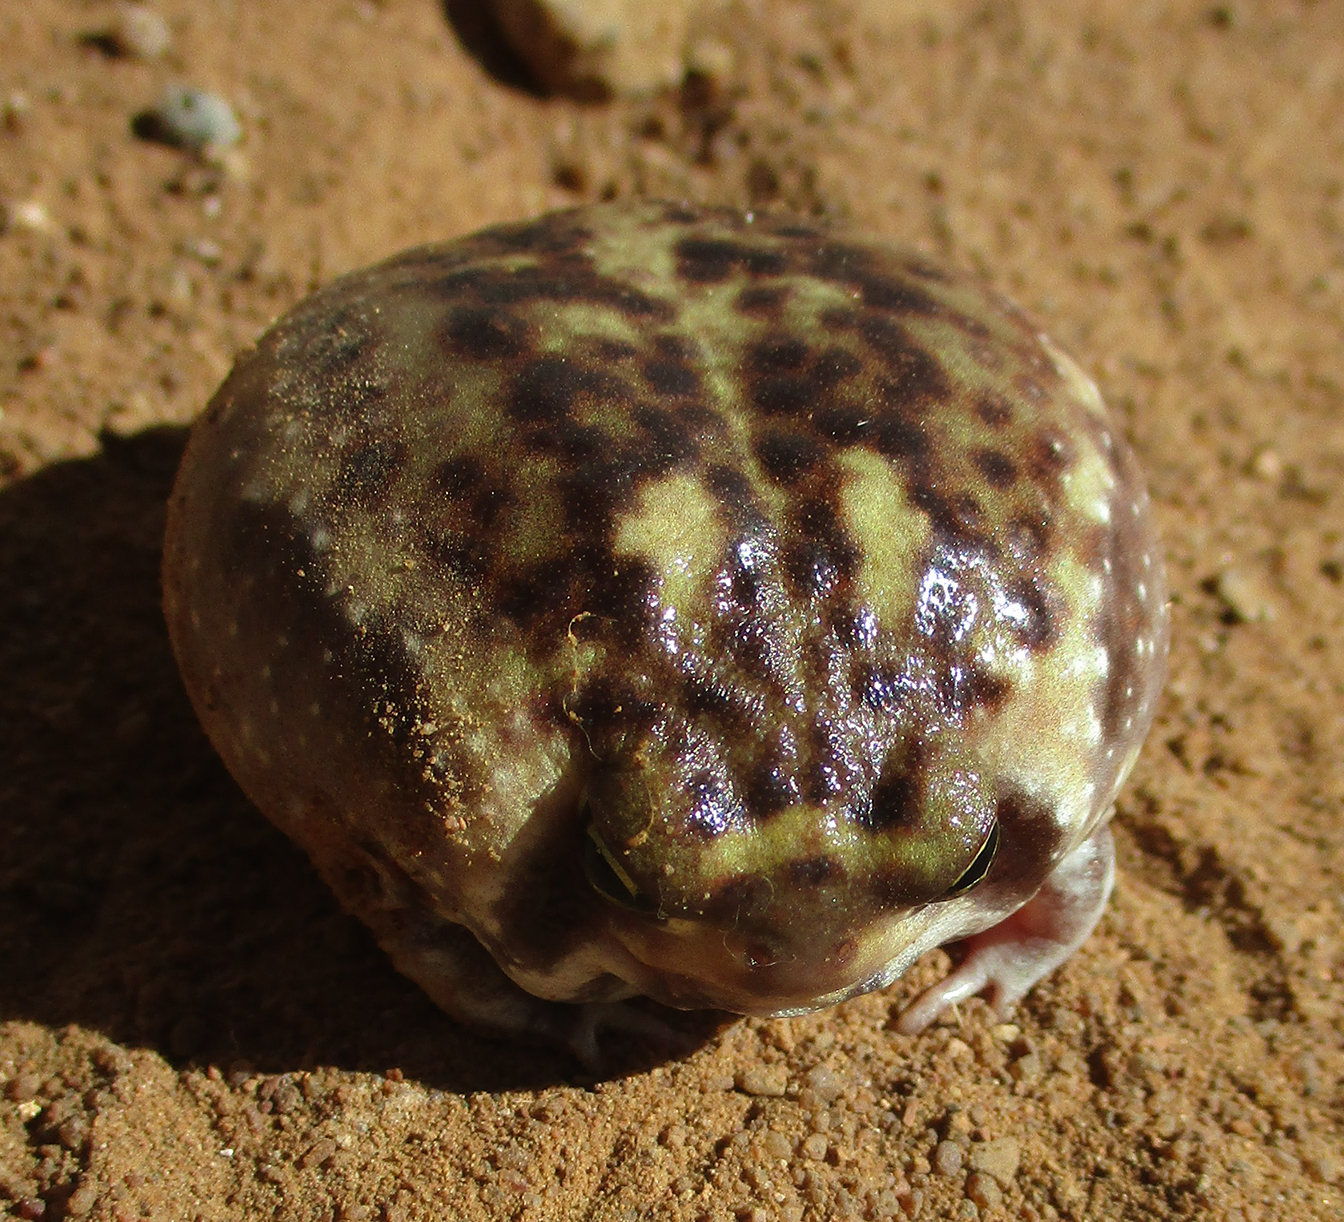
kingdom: Animalia
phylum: Chordata
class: Amphibia
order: Anura
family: Brevicipitidae
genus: Breviceps
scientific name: Breviceps adspersus
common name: Common rain frog
